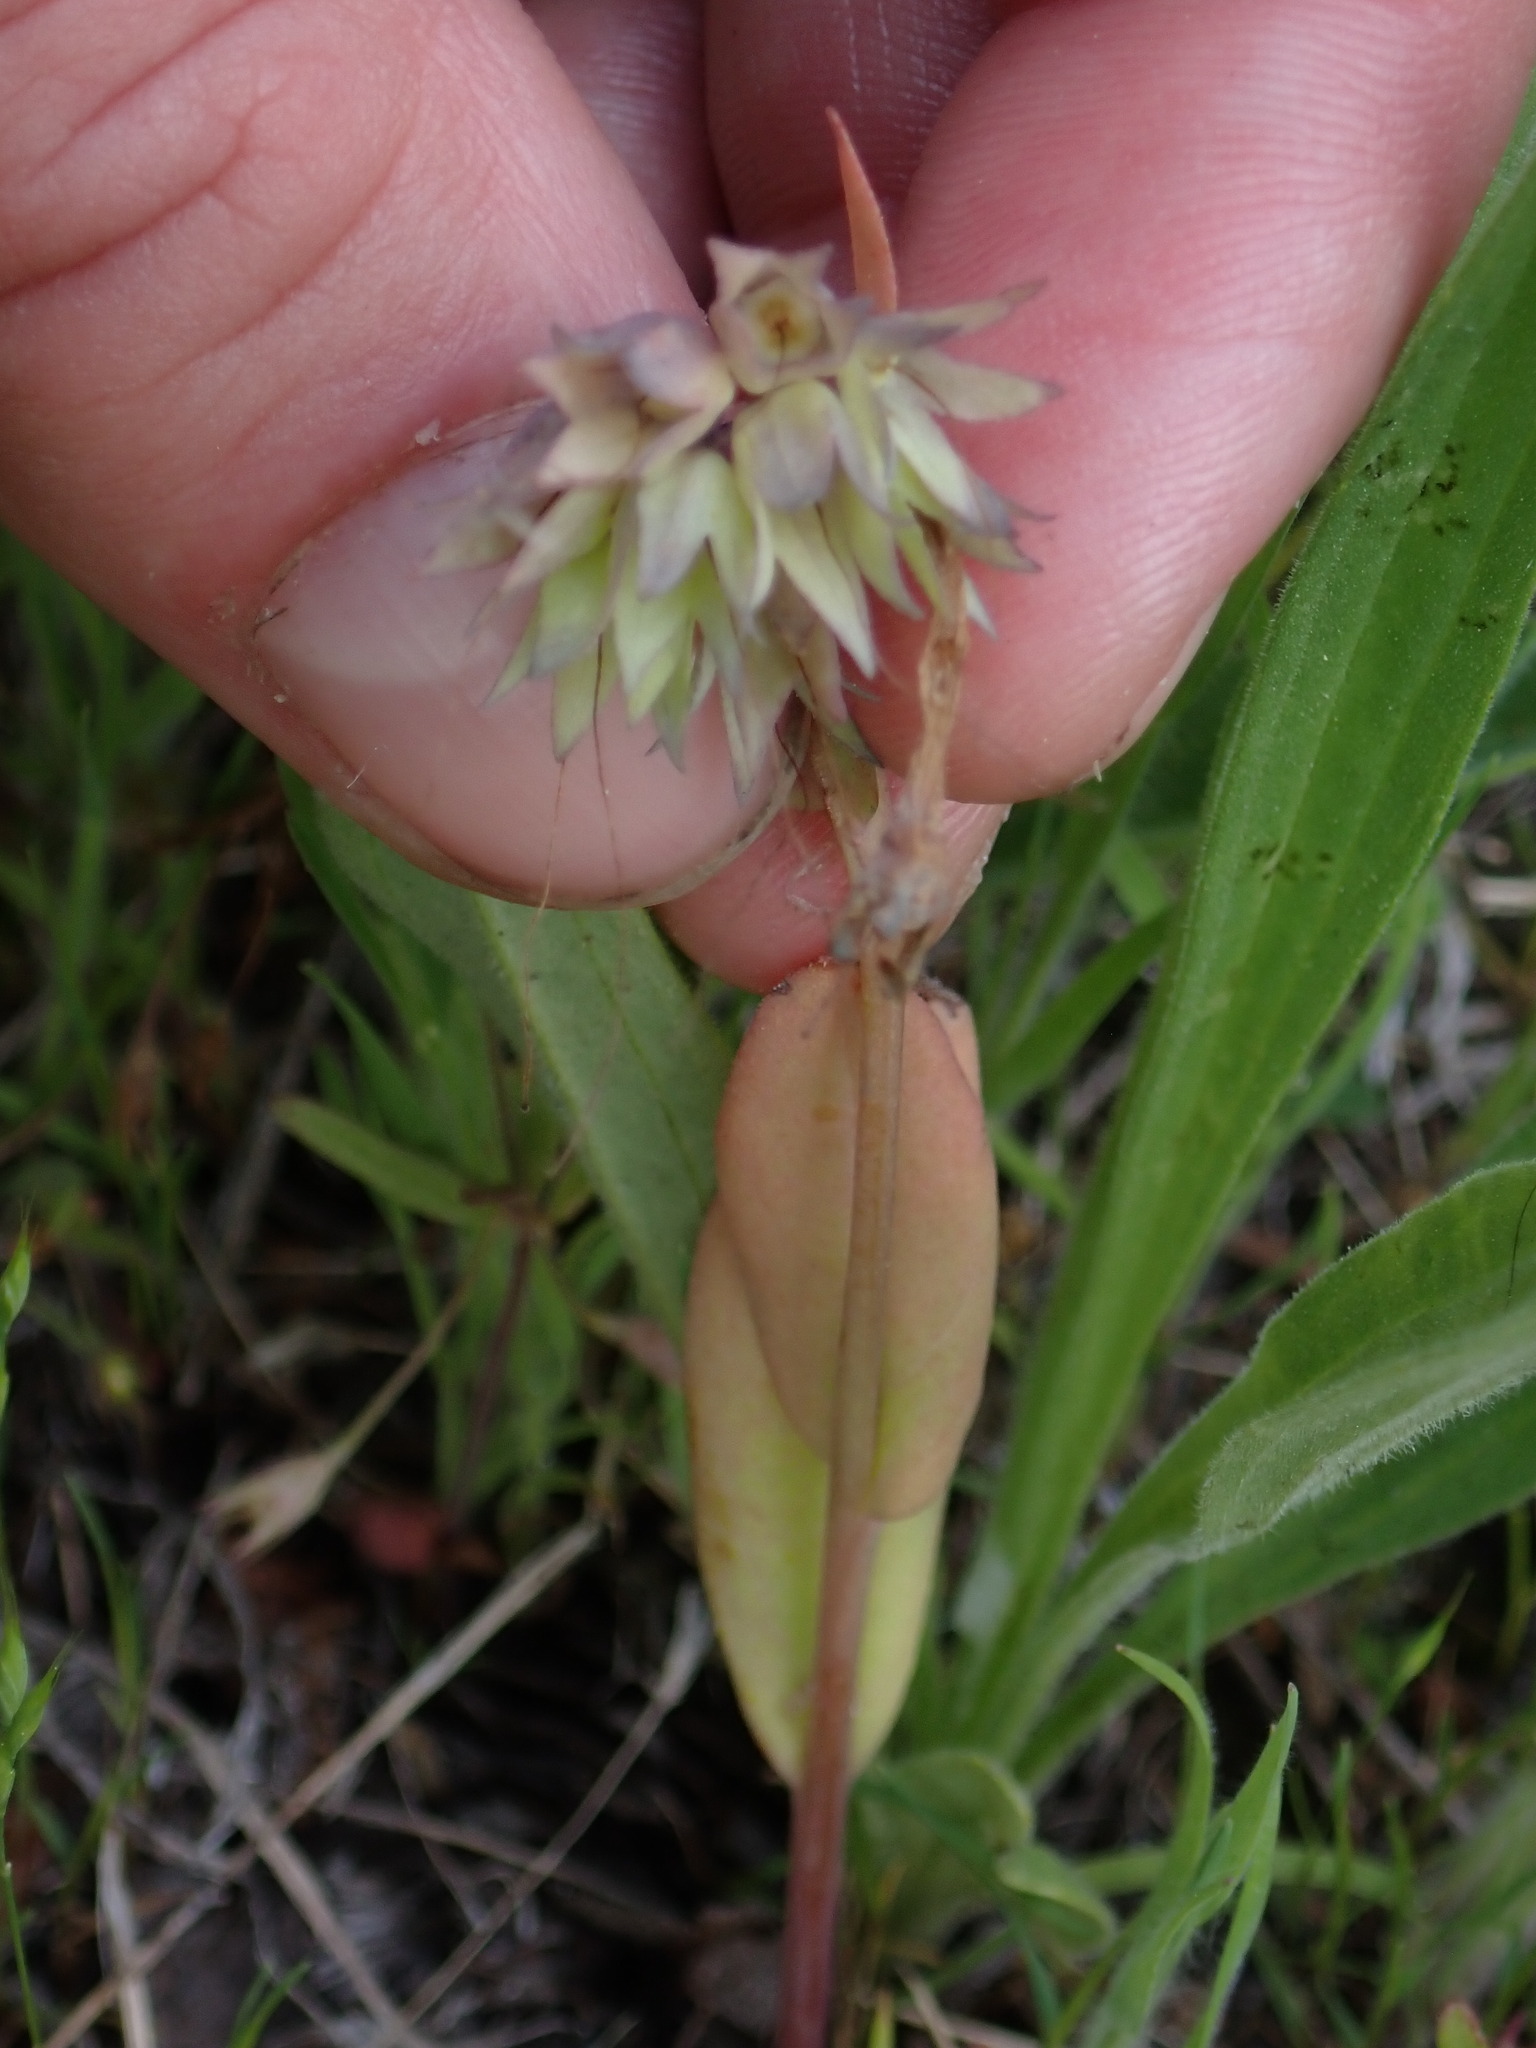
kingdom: Plantae
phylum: Tracheophyta
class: Magnoliopsida
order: Boraginales
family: Boraginaceae
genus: Mertensia
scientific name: Mertensia longiflora
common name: Large-flowered bluebells
